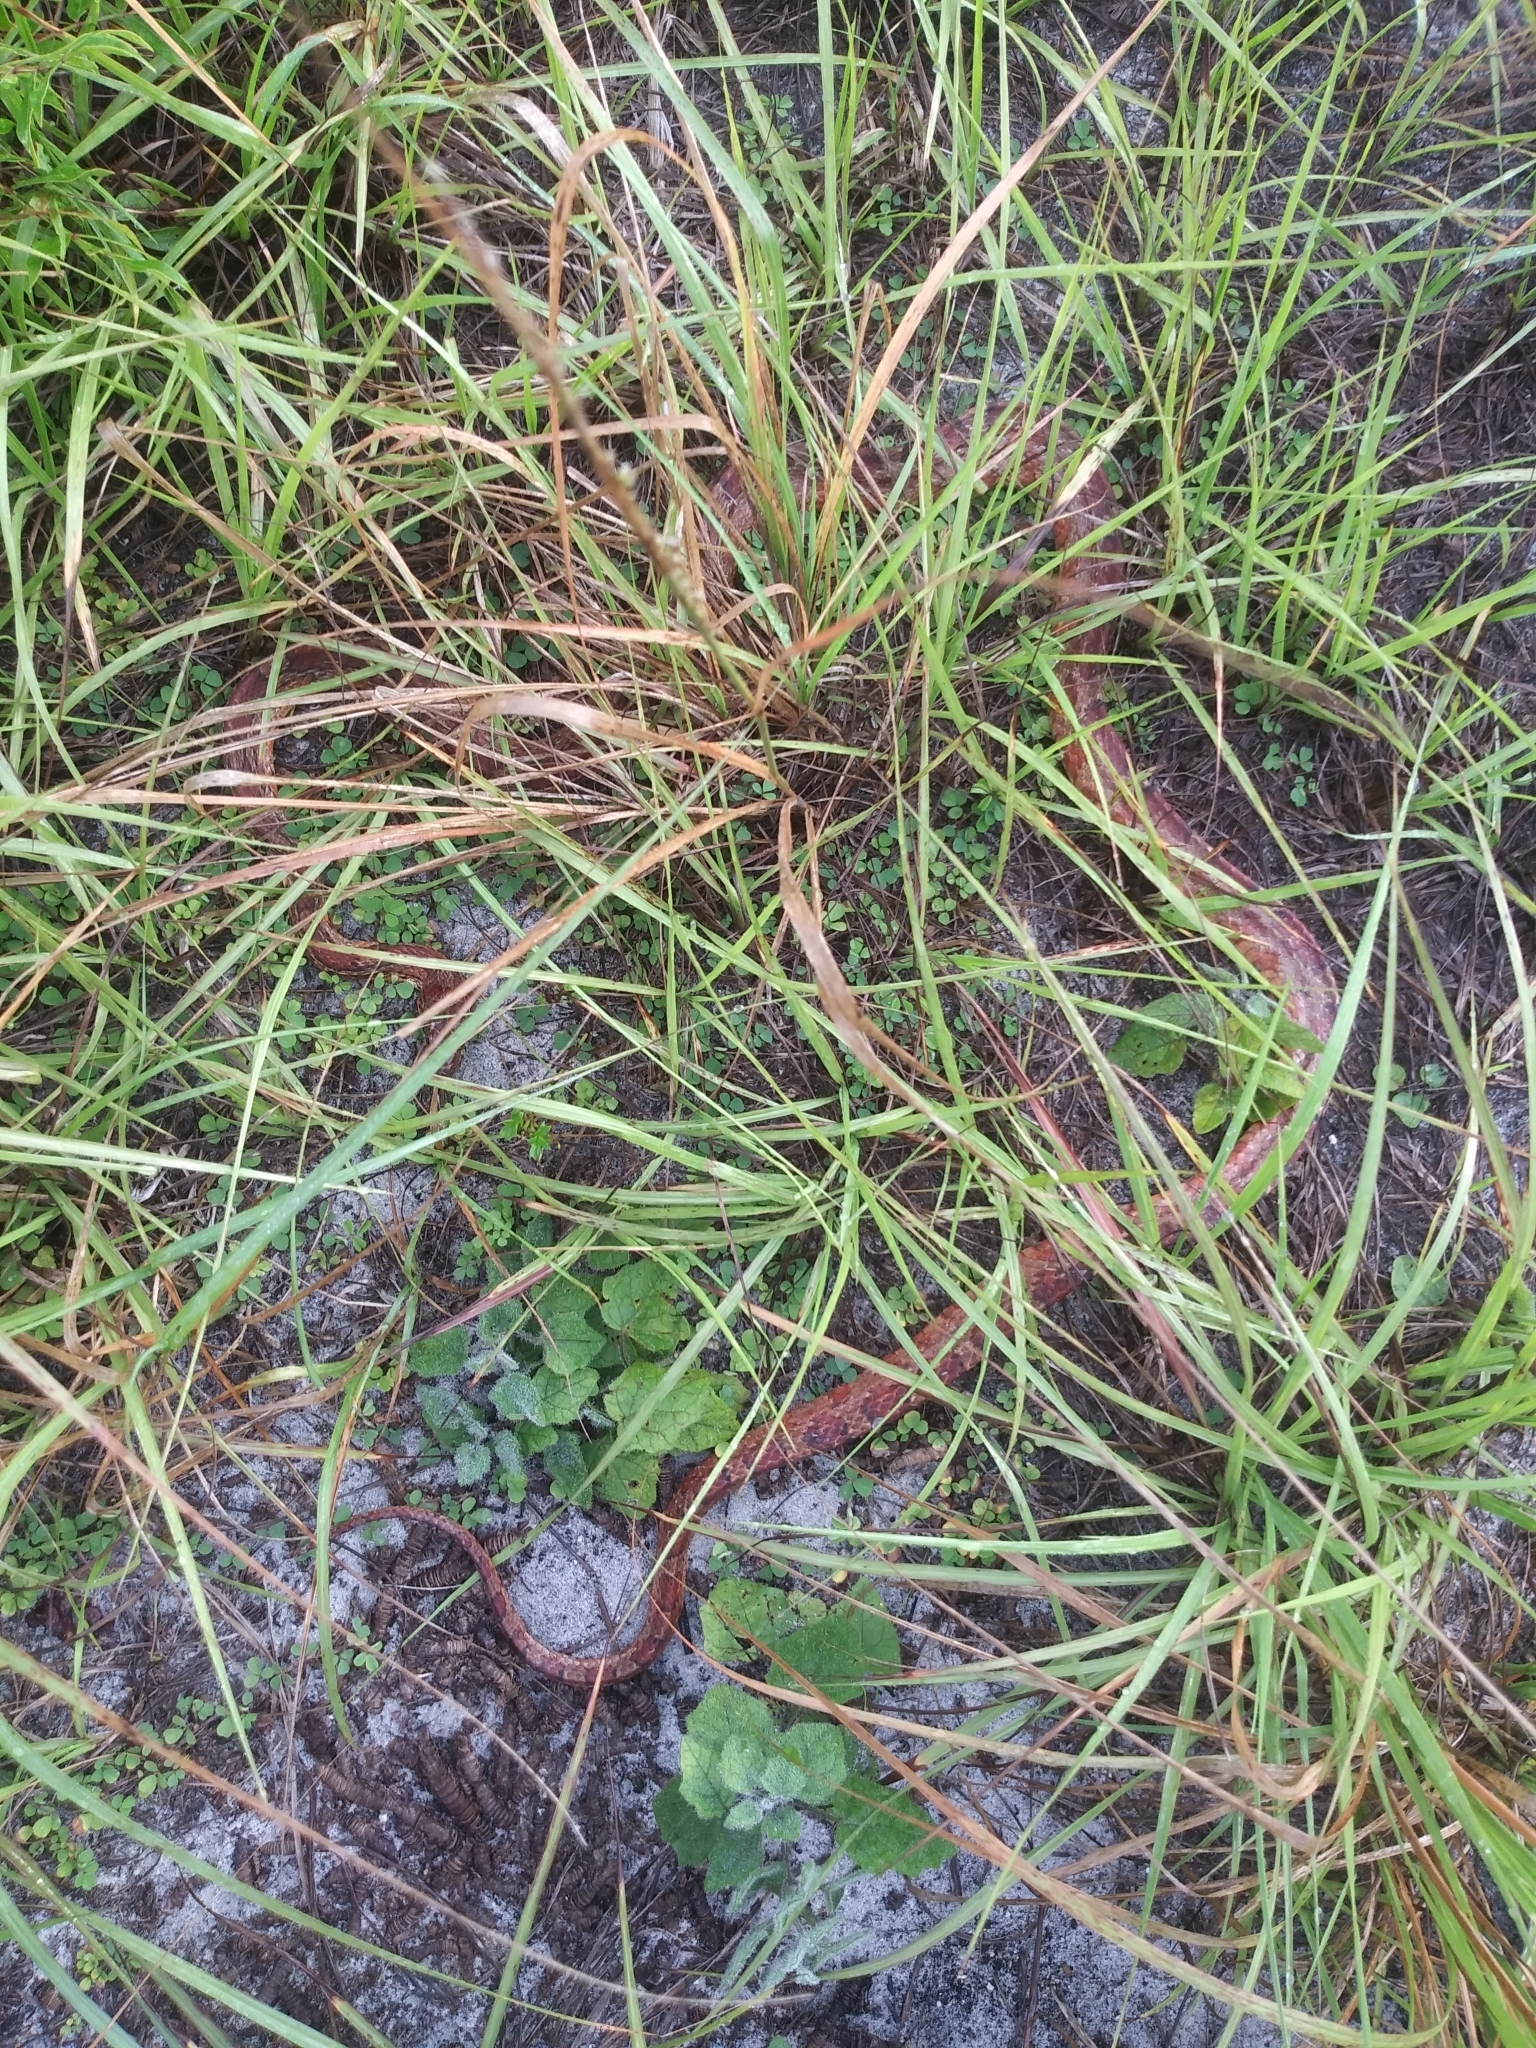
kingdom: Animalia
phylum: Chordata
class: Squamata
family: Colubridae
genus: Pantherophis
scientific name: Pantherophis guttatus
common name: Red cornsnake
